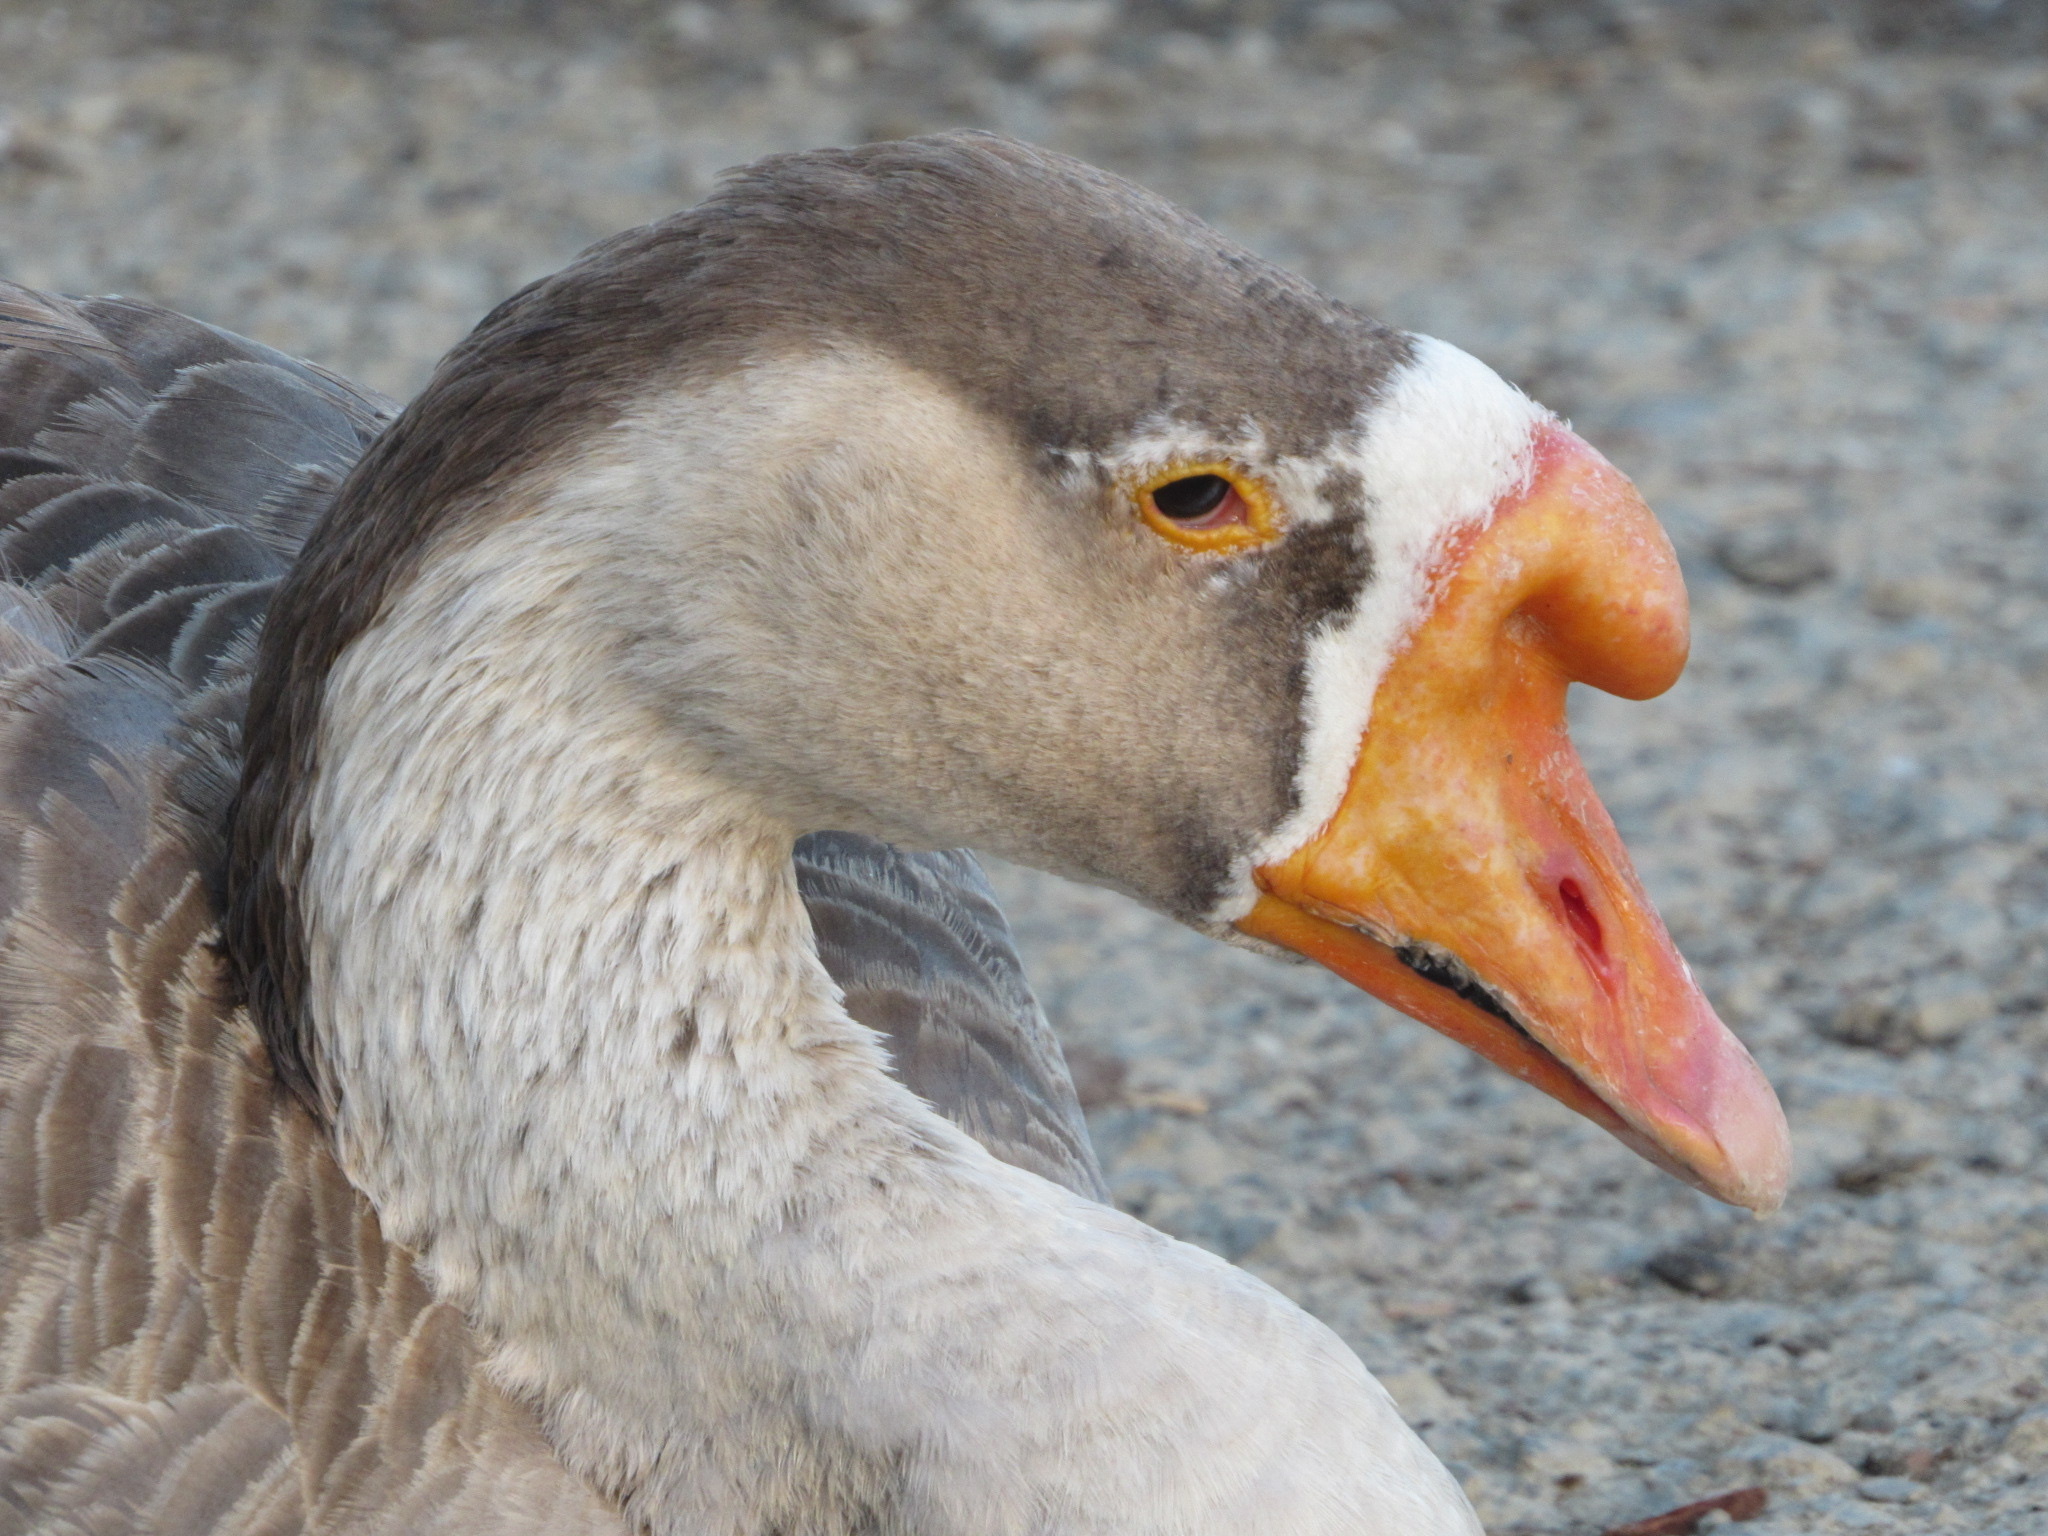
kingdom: Animalia
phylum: Chordata
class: Aves
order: Anseriformes
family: Anatidae
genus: Anser
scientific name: Anser cygnoides
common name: Swan goose
